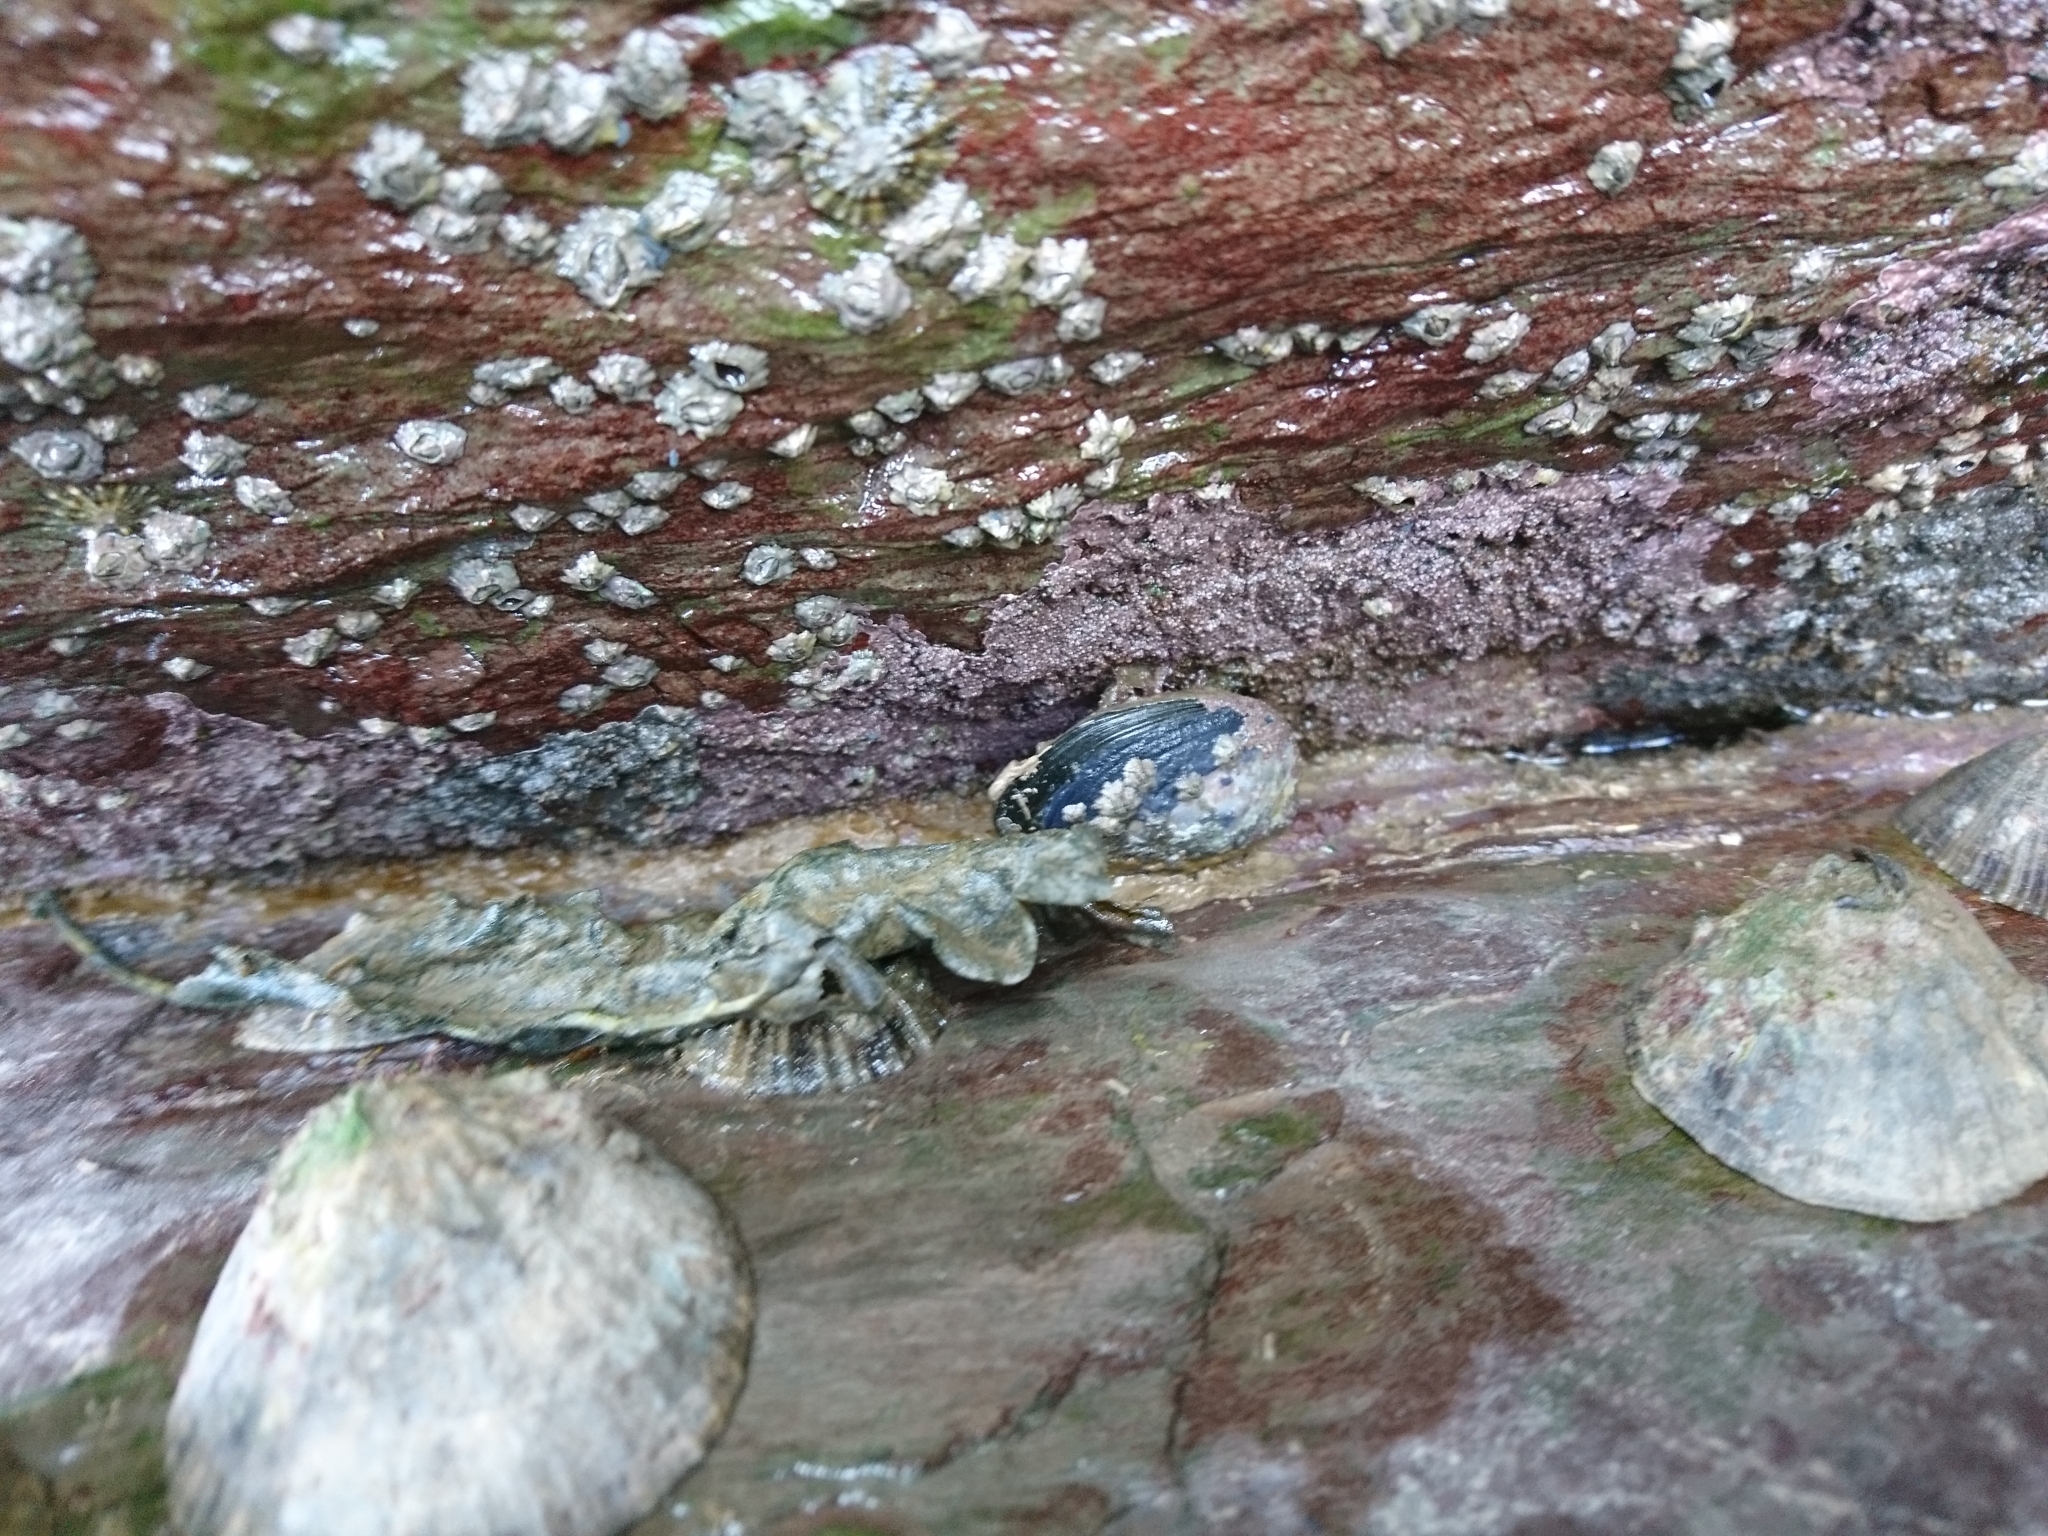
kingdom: Animalia
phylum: Mollusca
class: Bivalvia
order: Mytilida
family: Mytilidae
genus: Mytilus
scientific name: Mytilus edulis
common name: Blue mussel
